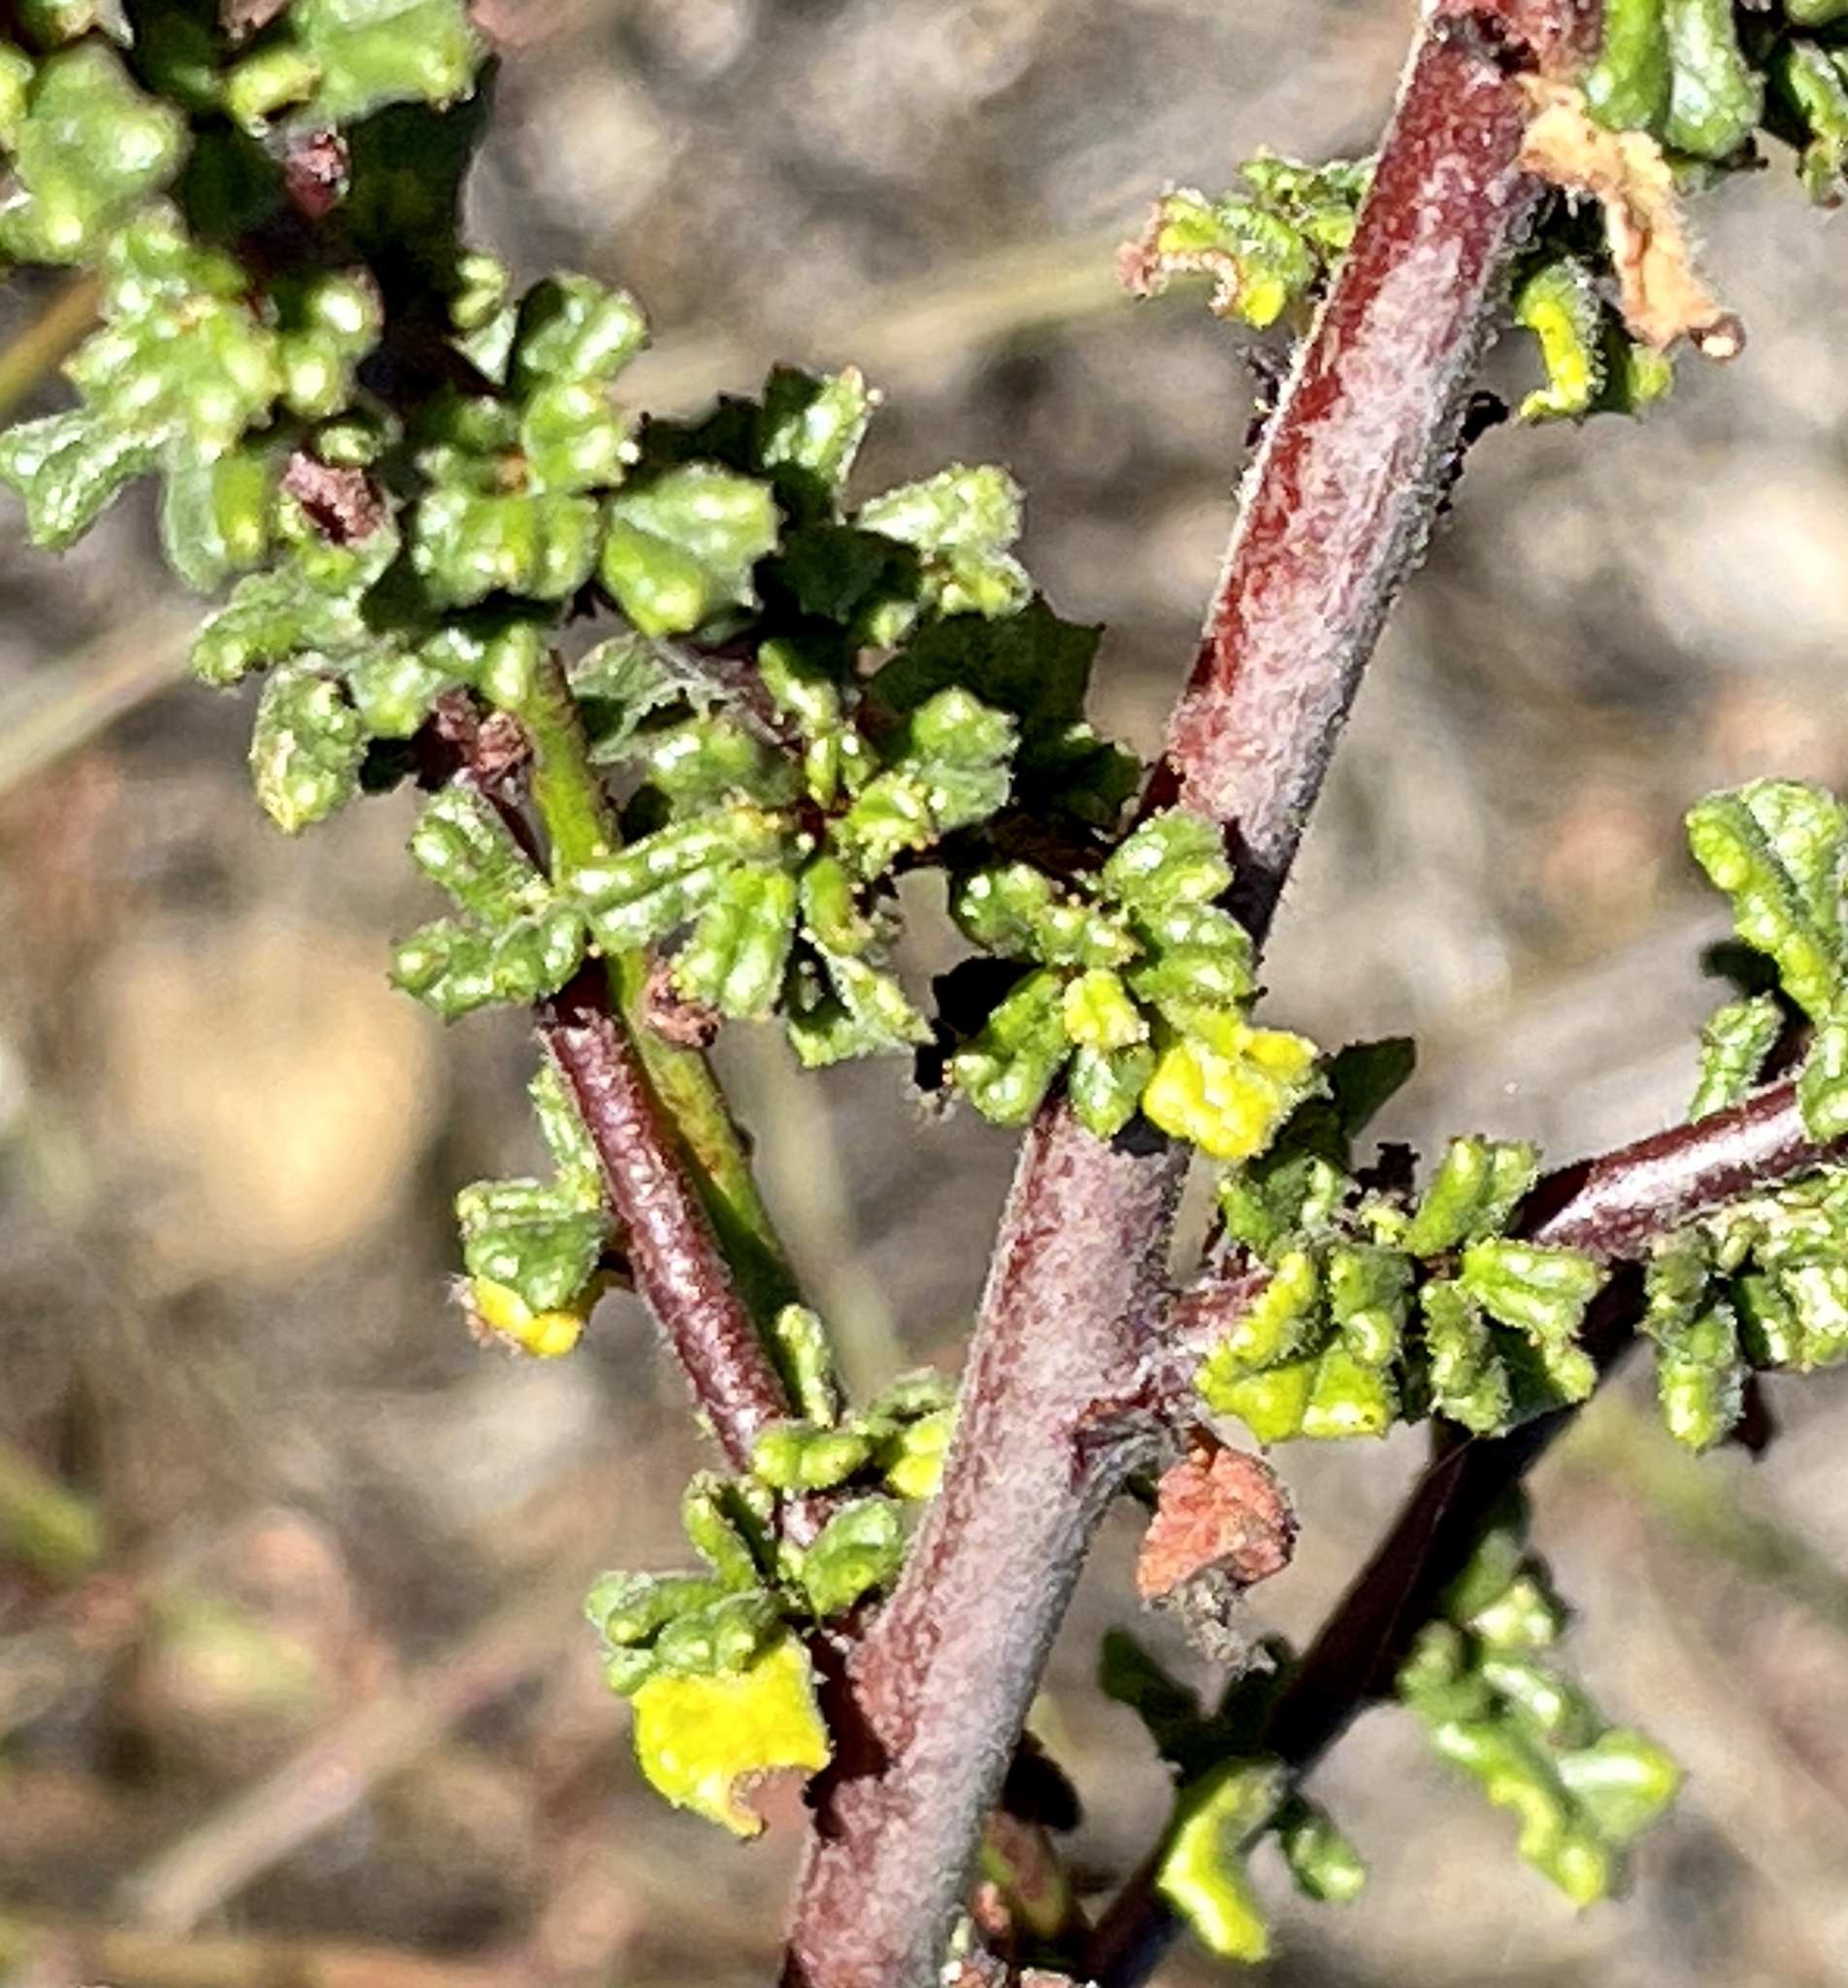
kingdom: Plantae
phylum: Tracheophyta
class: Magnoliopsida
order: Rosales
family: Rhamnaceae
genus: Ceanothus
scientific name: Ceanothus dentatus
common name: Crop-leaf ceanothus
